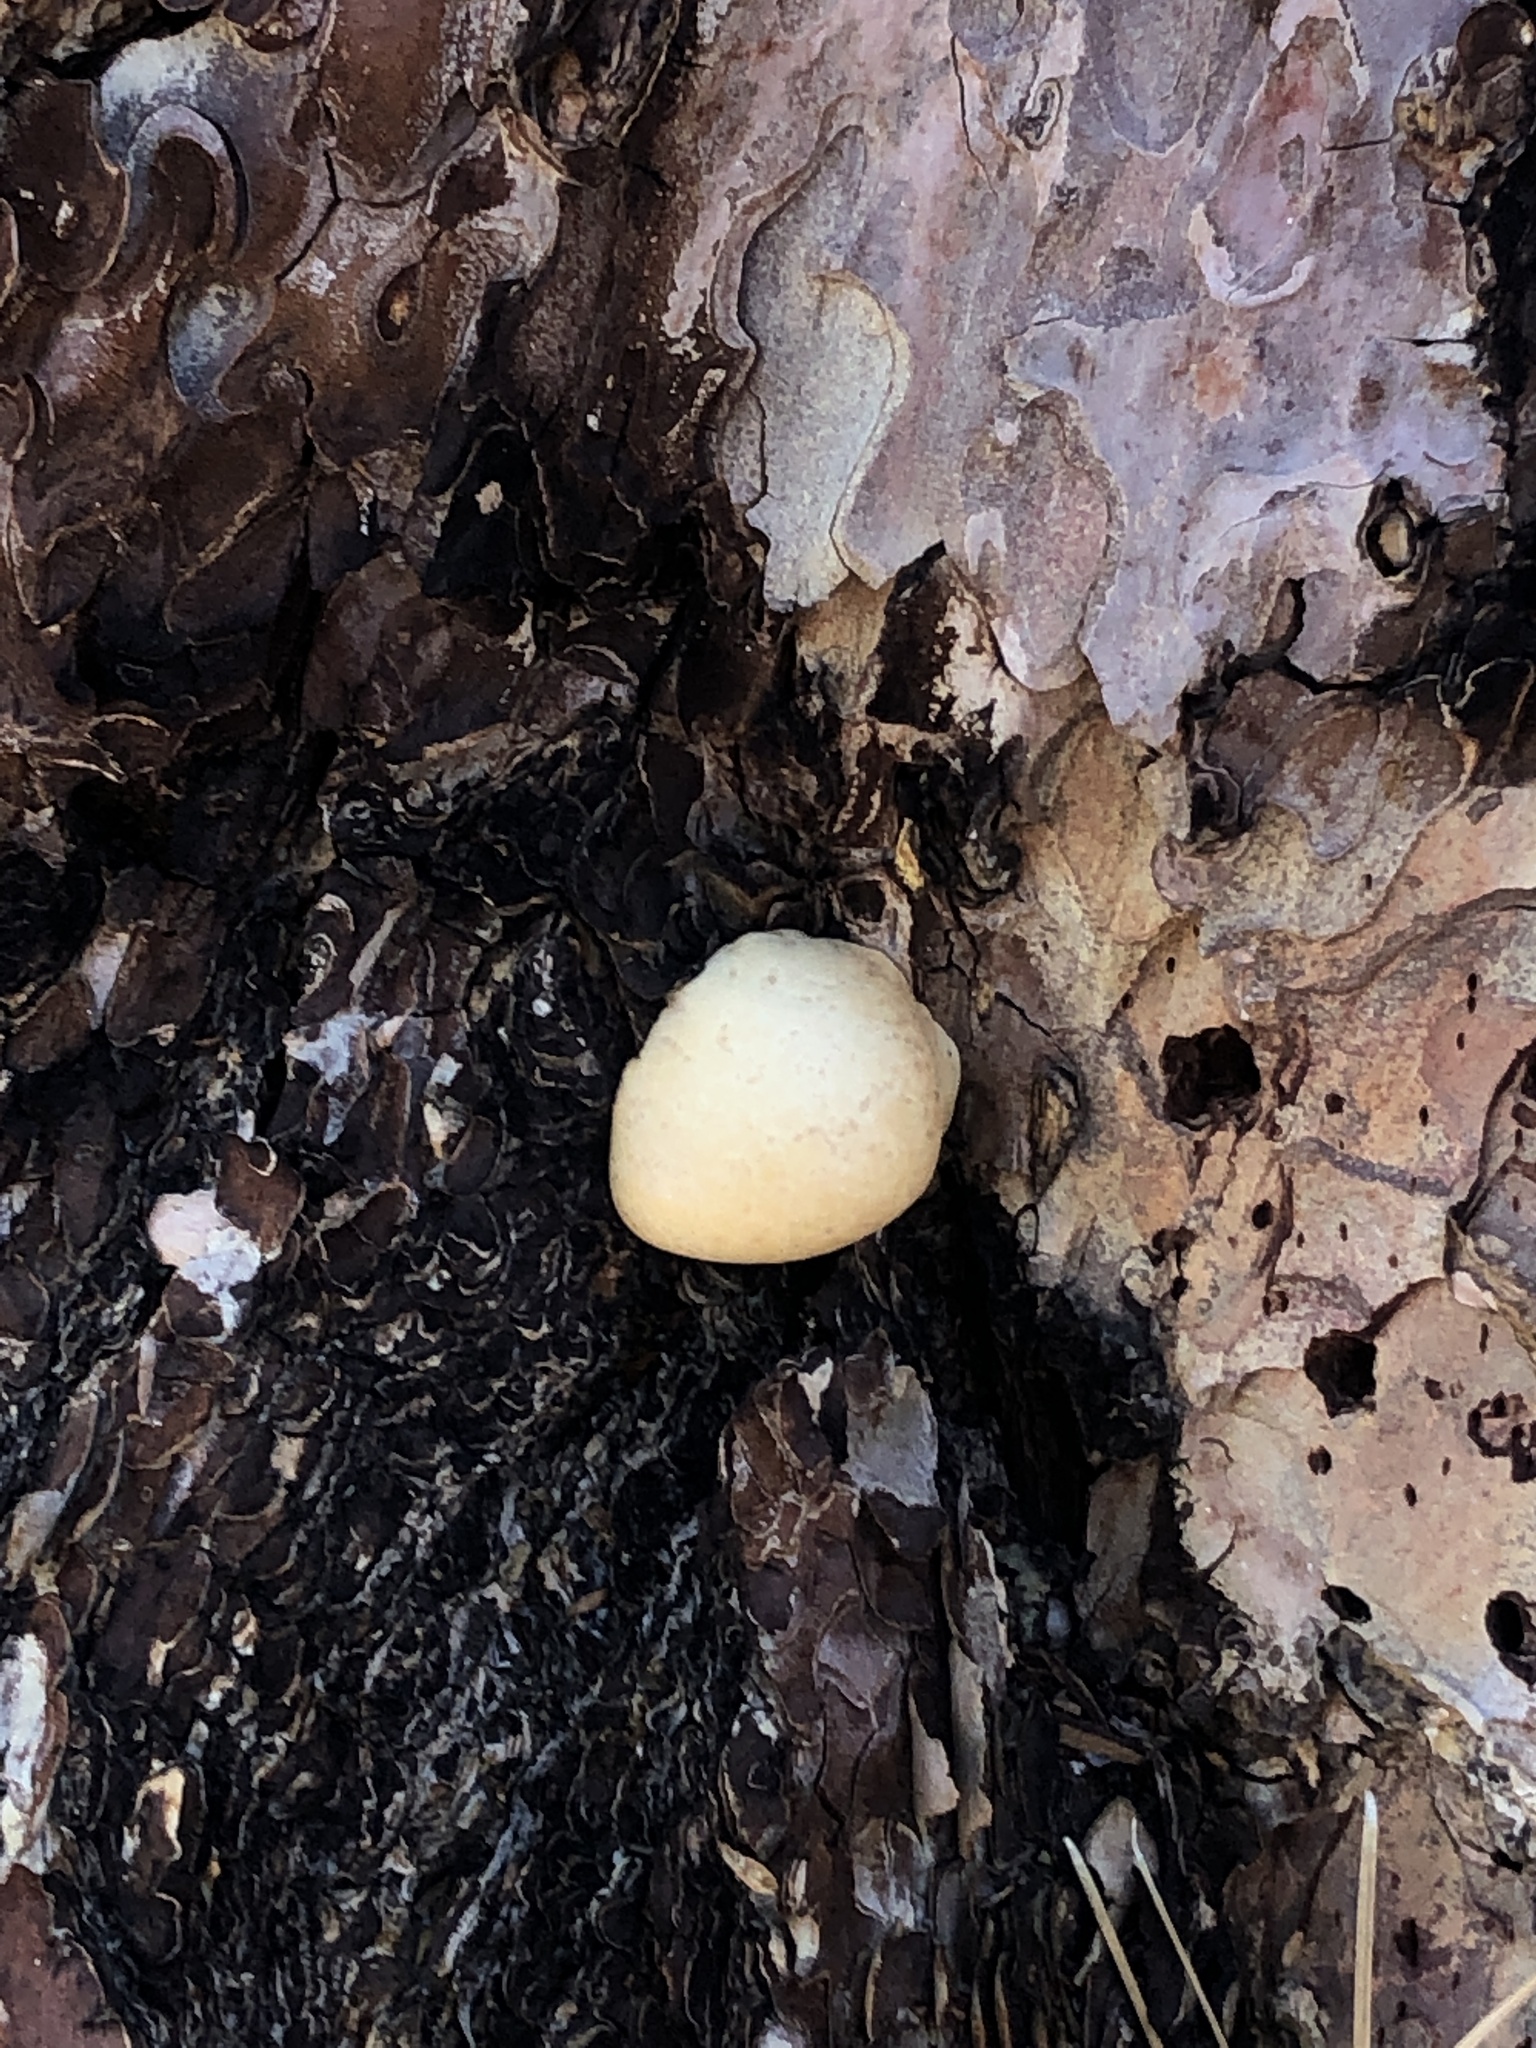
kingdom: Fungi
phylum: Basidiomycota
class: Agaricomycetes
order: Polyporales
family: Polyporaceae
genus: Cryptoporus
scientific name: Cryptoporus volvatus
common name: Veiled polypore
